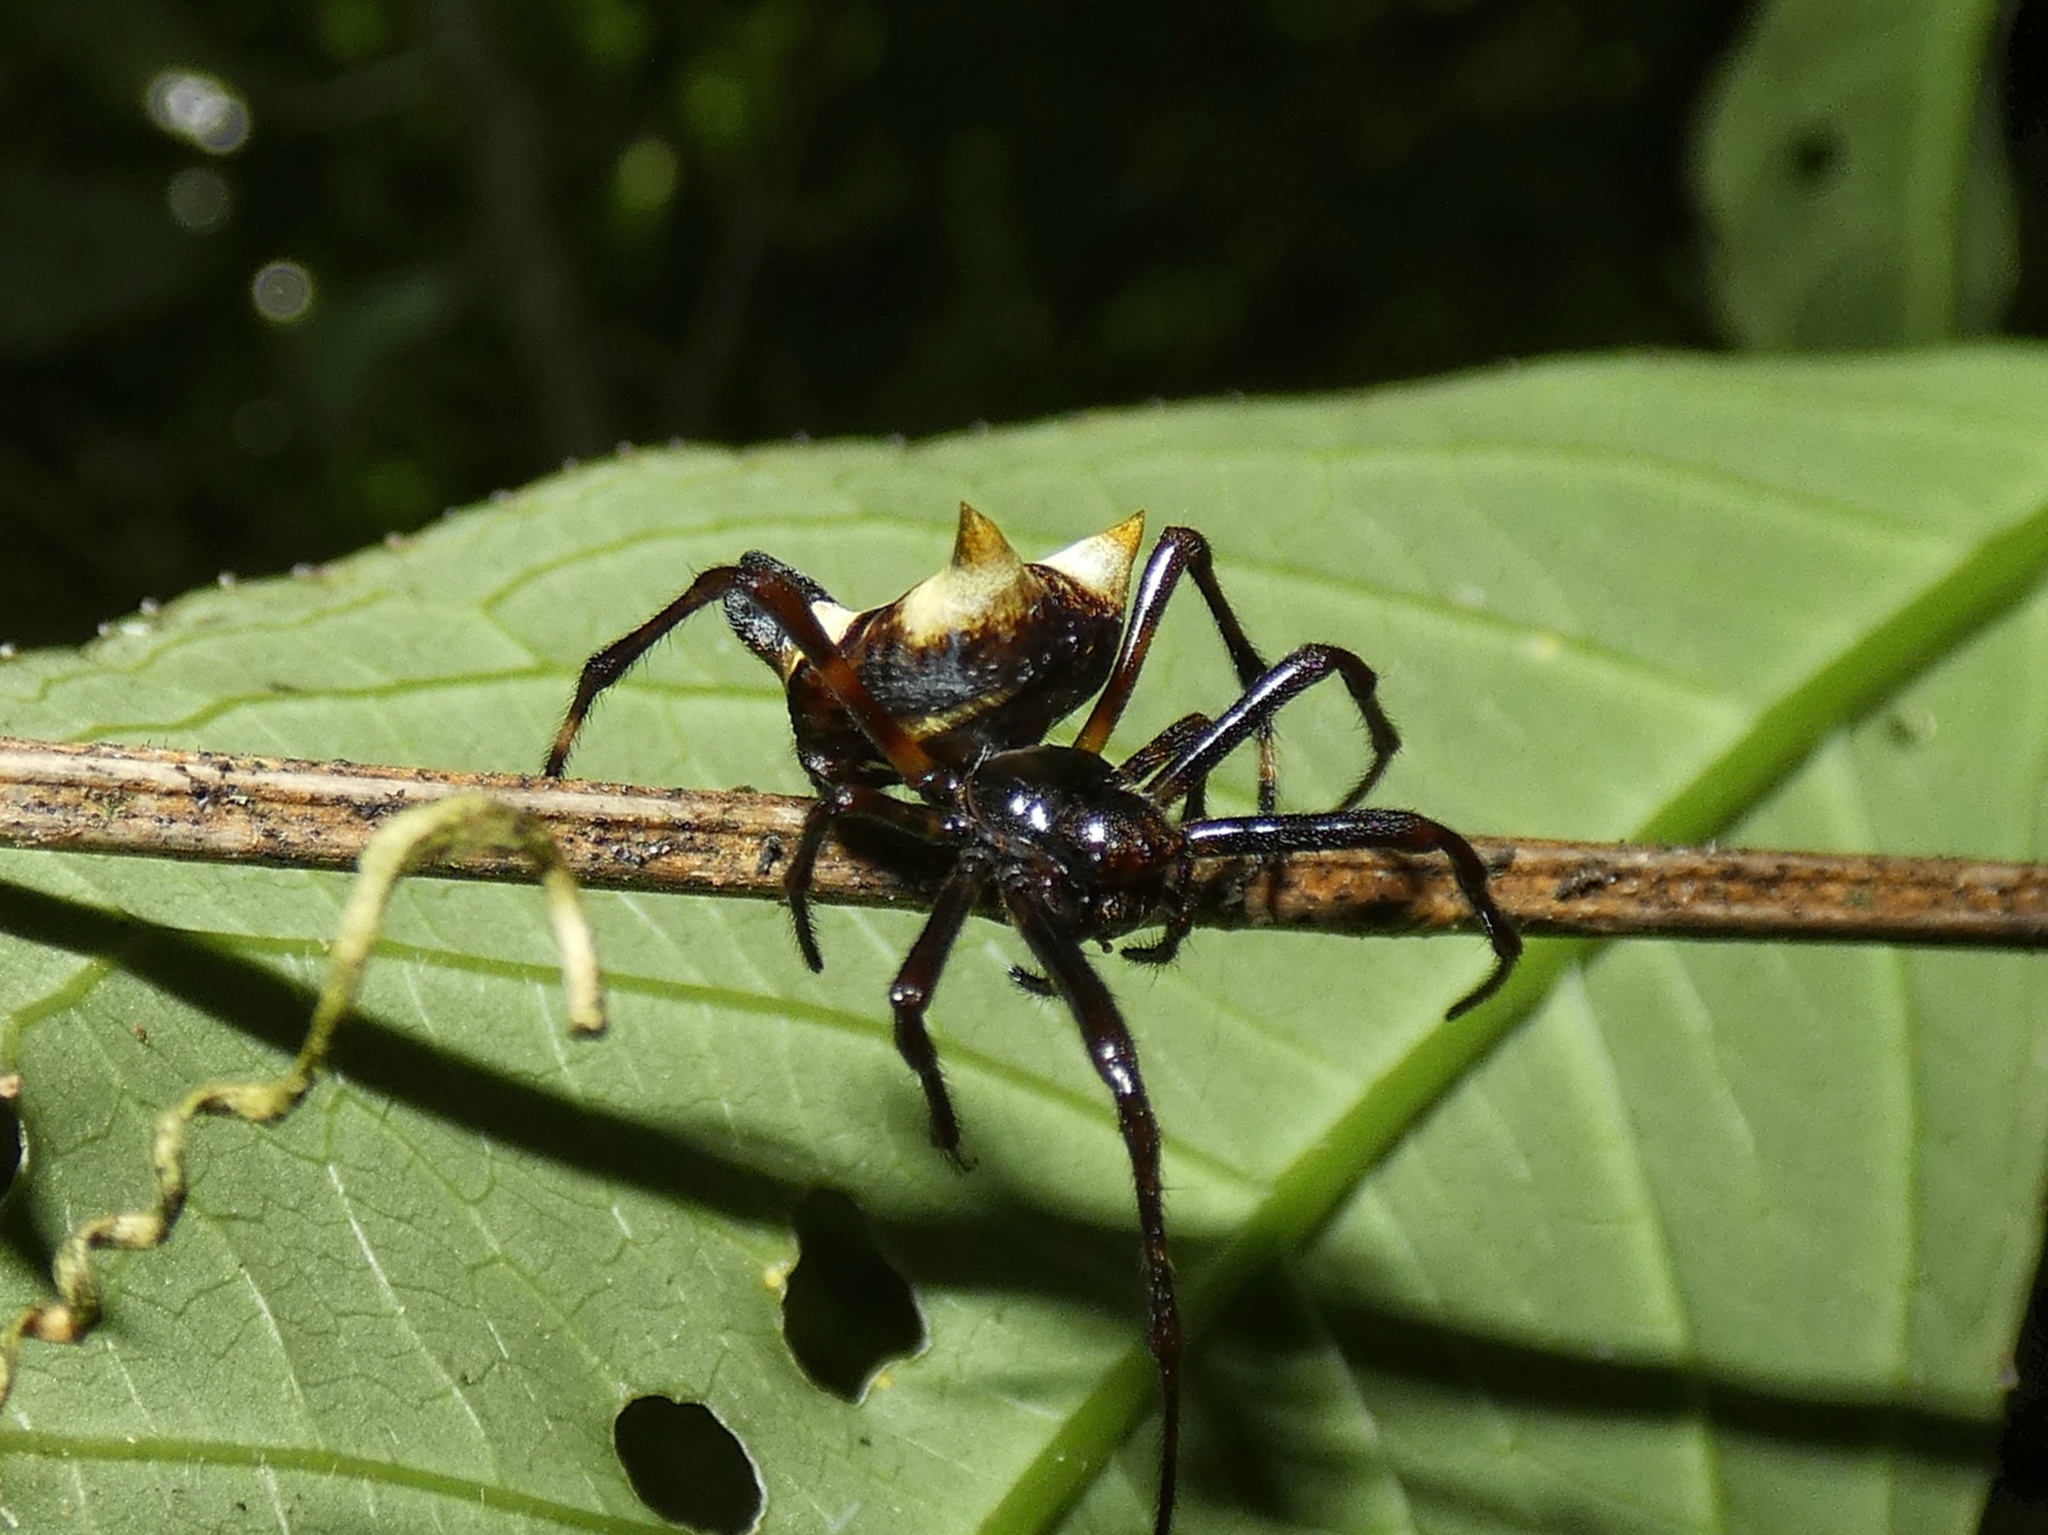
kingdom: Animalia
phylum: Arthropoda
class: Arachnida
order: Araneae
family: Araneidae
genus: Witica
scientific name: Witica crassicauda
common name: Orb weavers
